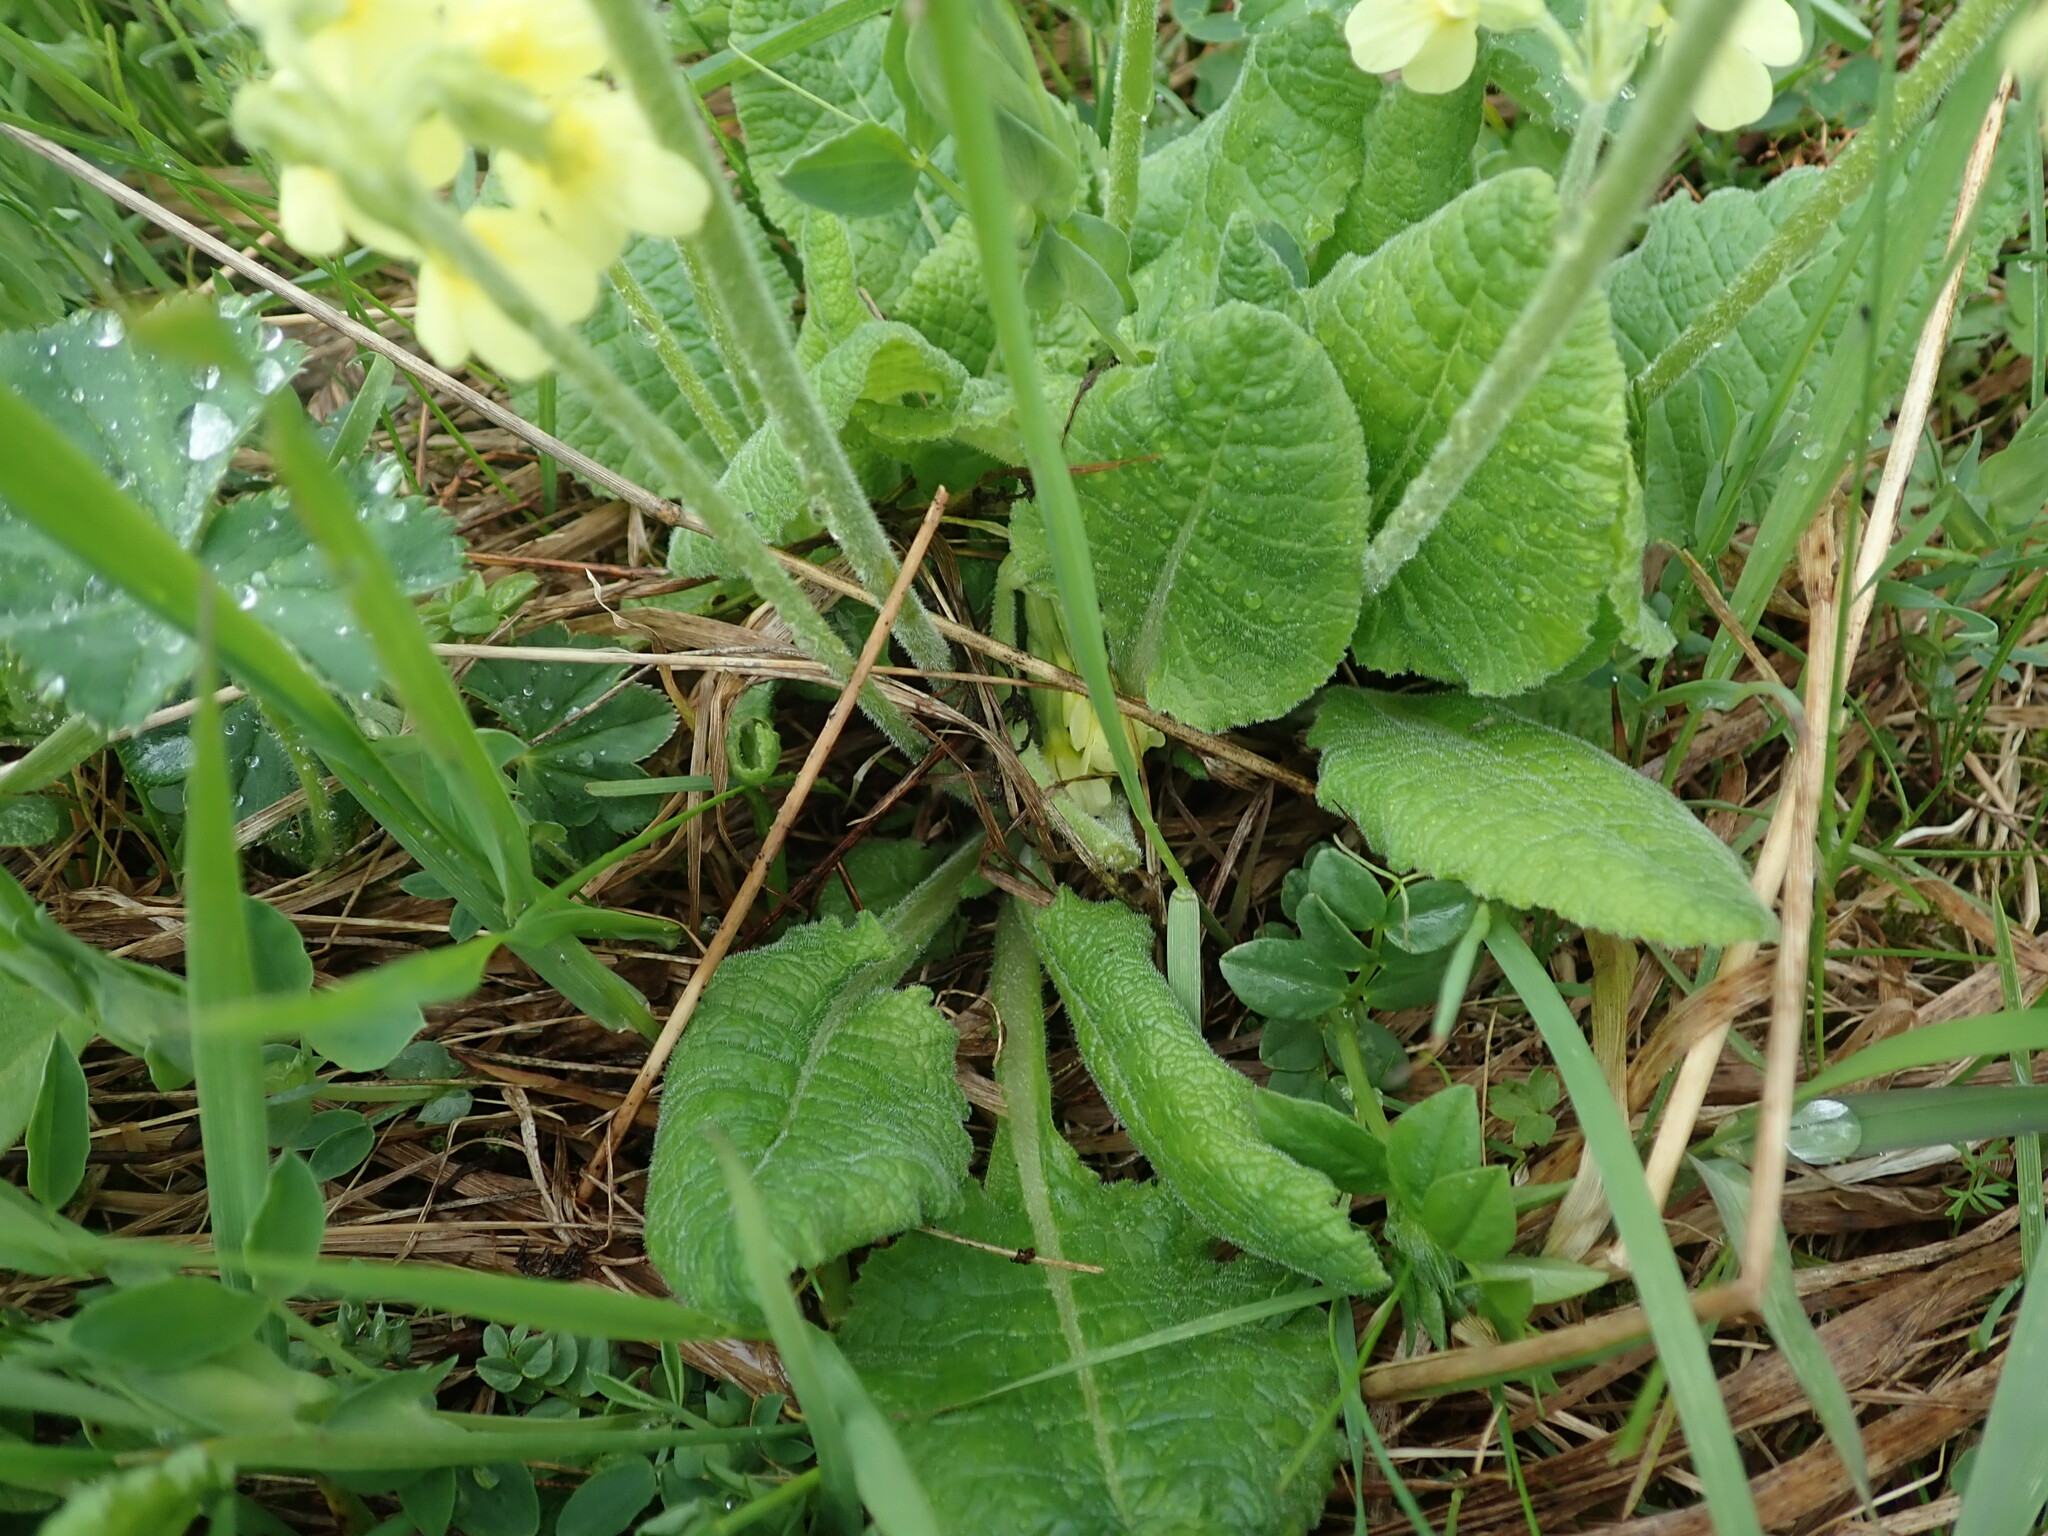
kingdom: Plantae
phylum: Tracheophyta
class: Magnoliopsida
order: Ericales
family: Primulaceae
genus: Primula
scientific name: Primula elatior
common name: Oxlip
